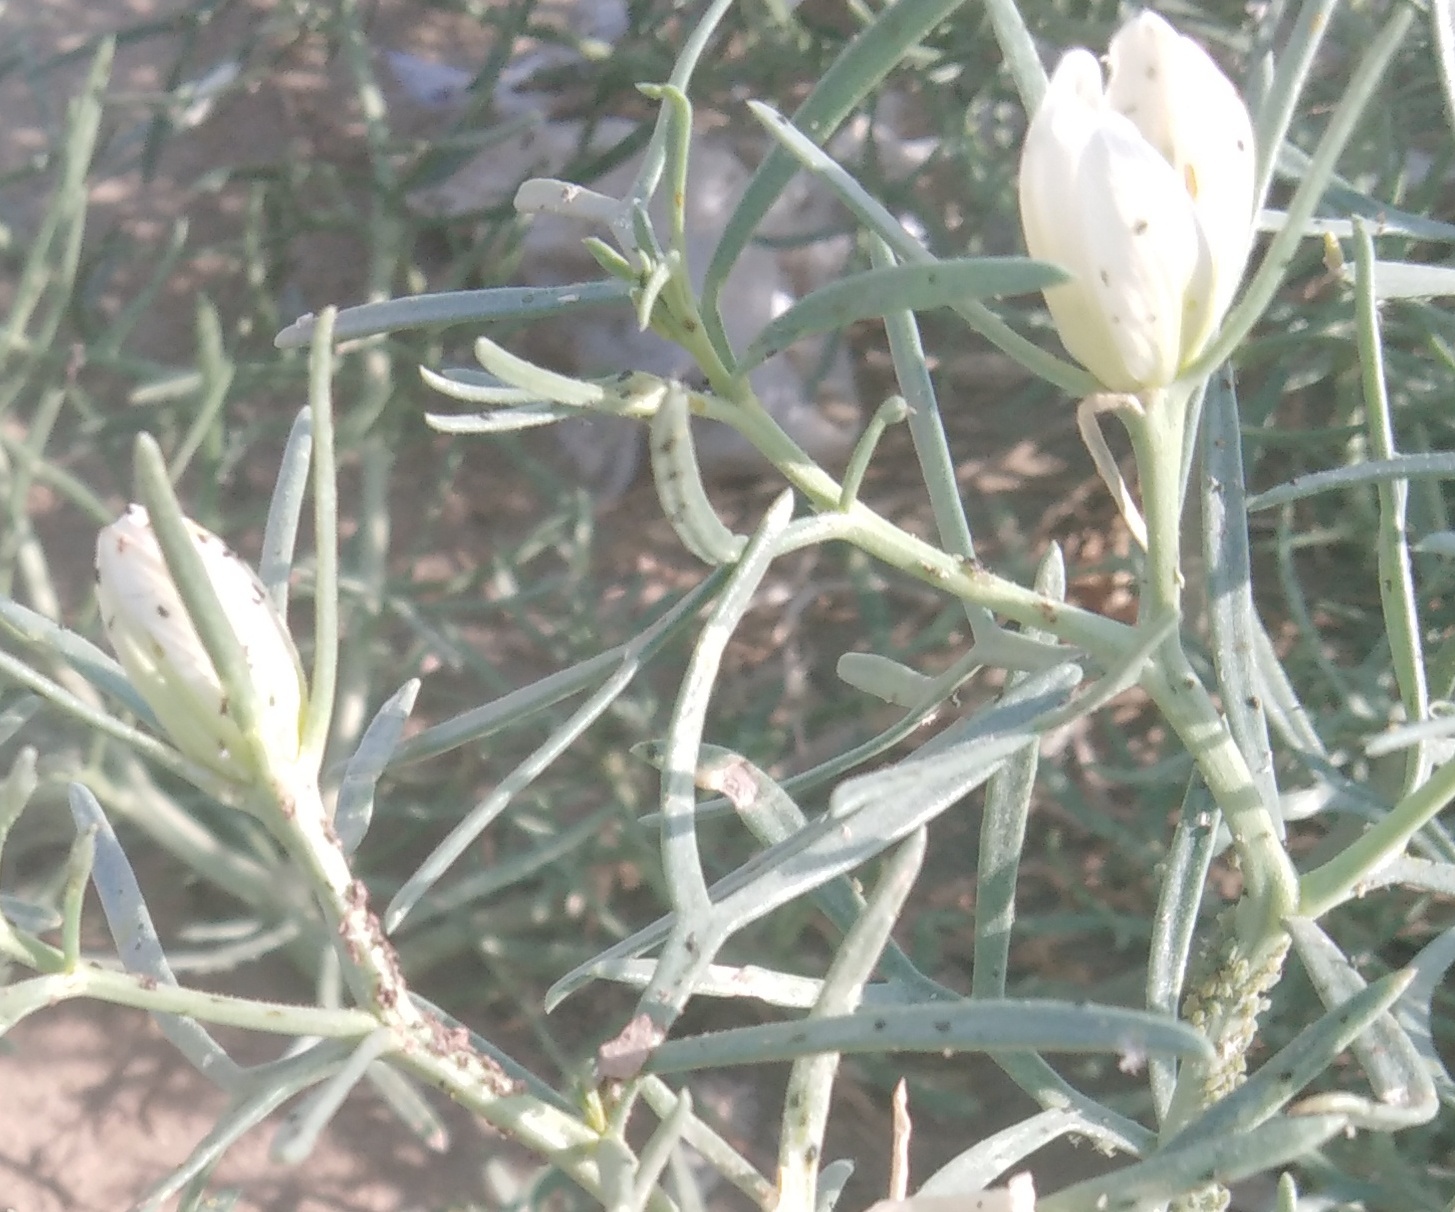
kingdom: Plantae
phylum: Tracheophyta
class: Magnoliopsida
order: Sapindales
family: Tetradiclidaceae
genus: Peganum
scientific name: Peganum harmala
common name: Harmal peganum
